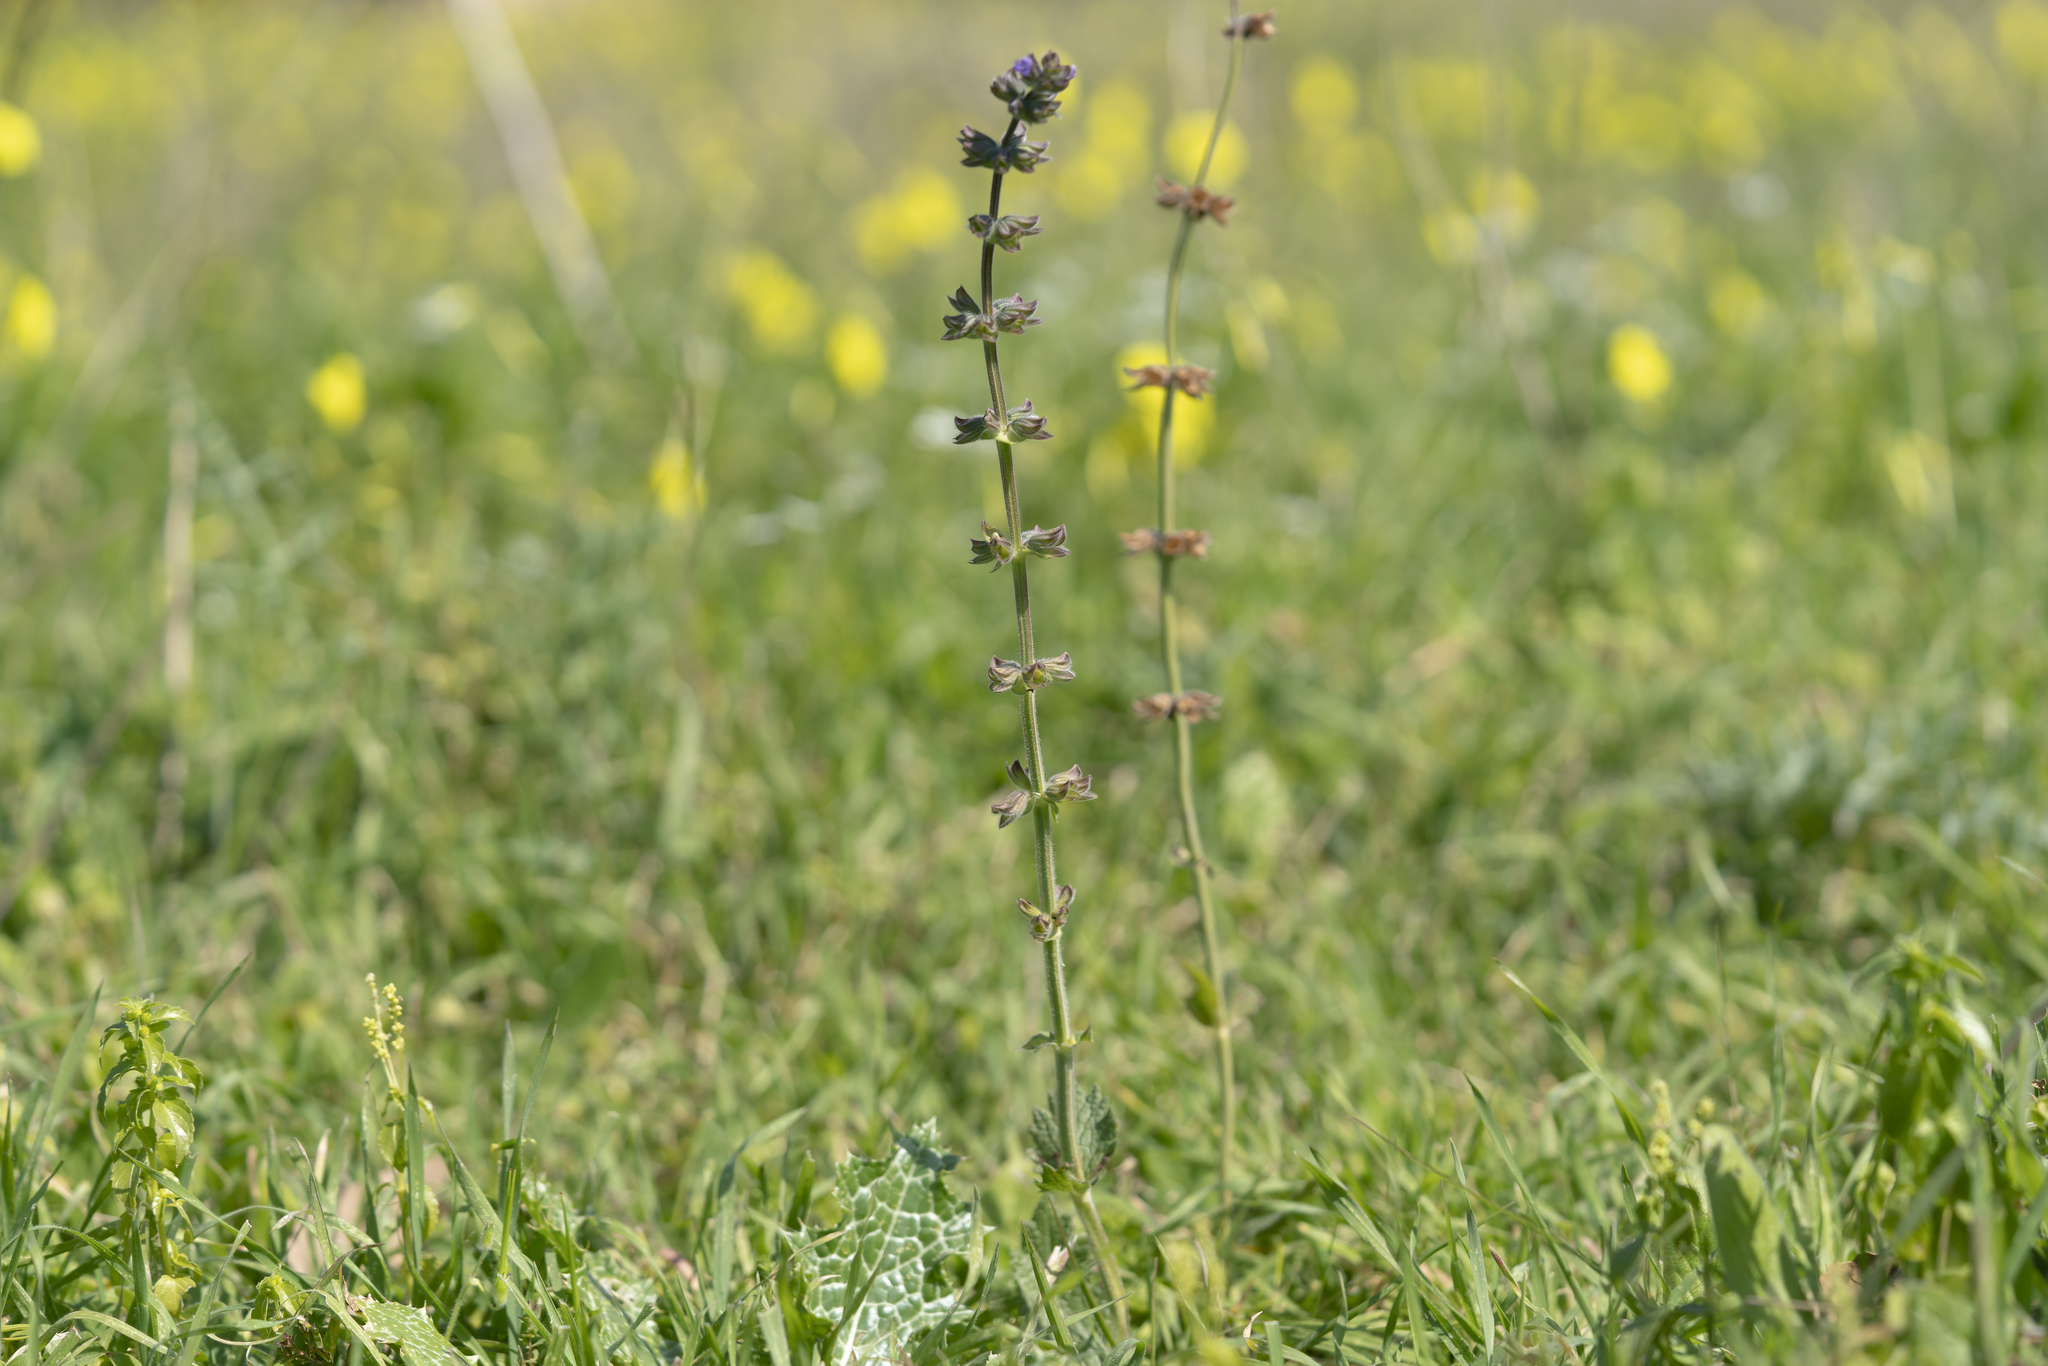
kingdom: Plantae
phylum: Tracheophyta
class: Magnoliopsida
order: Lamiales
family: Lamiaceae
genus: Salvia
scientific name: Salvia verbenaca
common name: Wild clary
